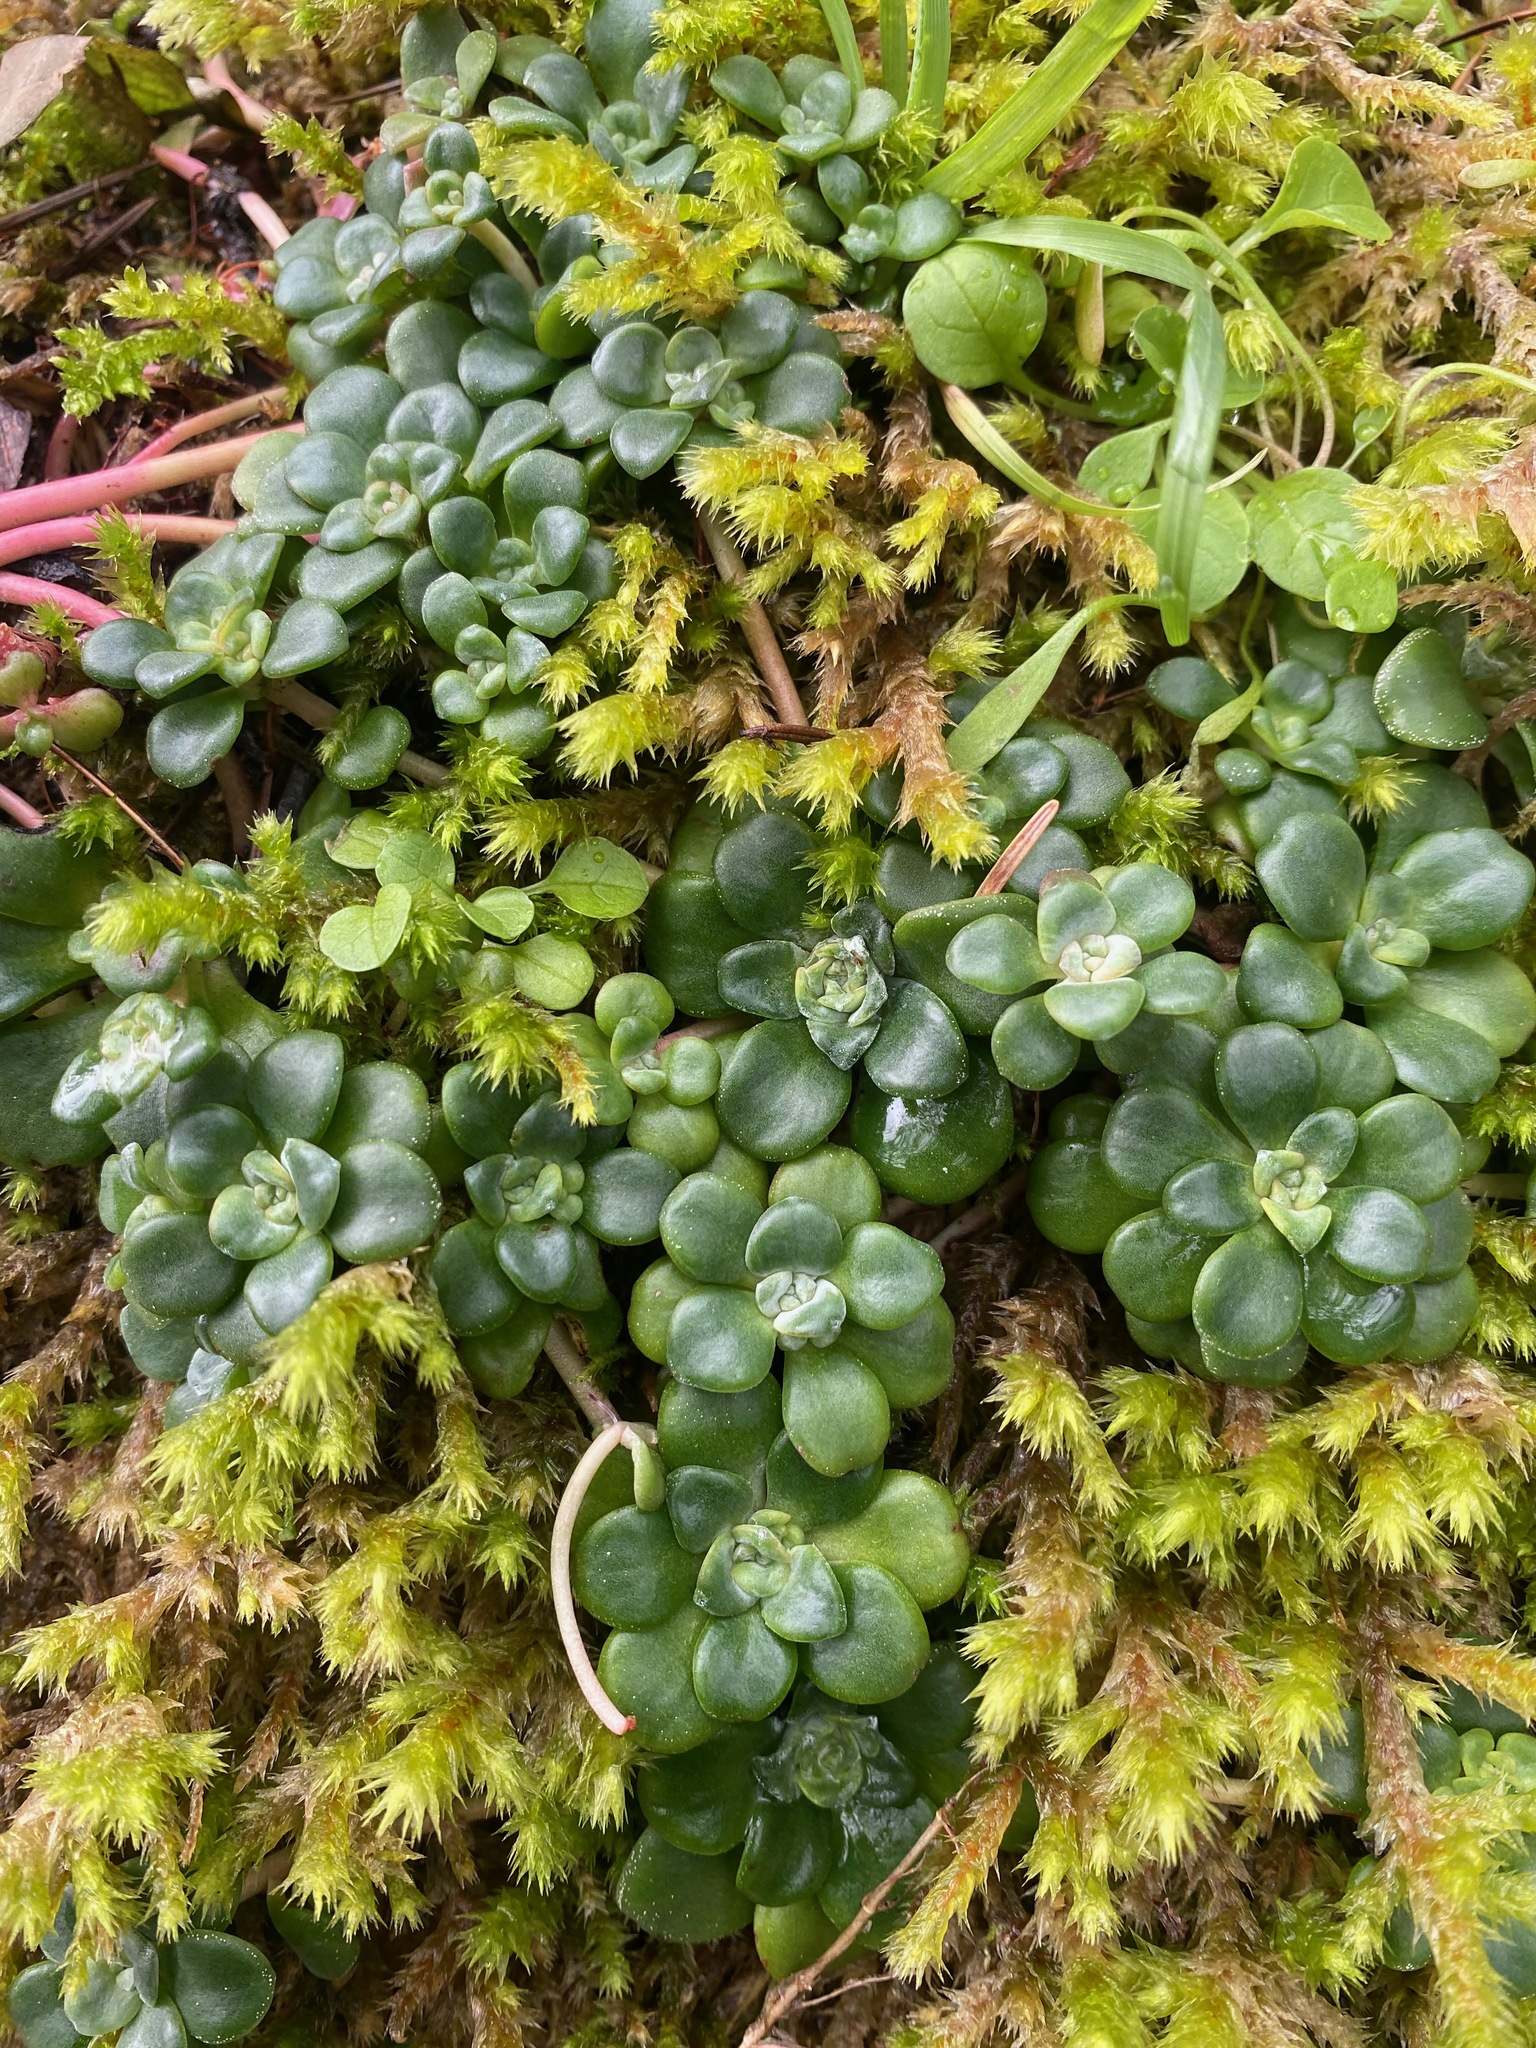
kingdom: Plantae
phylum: Tracheophyta
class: Magnoliopsida
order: Saxifragales
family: Crassulaceae
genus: Sedum
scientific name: Sedum spathulifolium
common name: Colorado stonecrop
